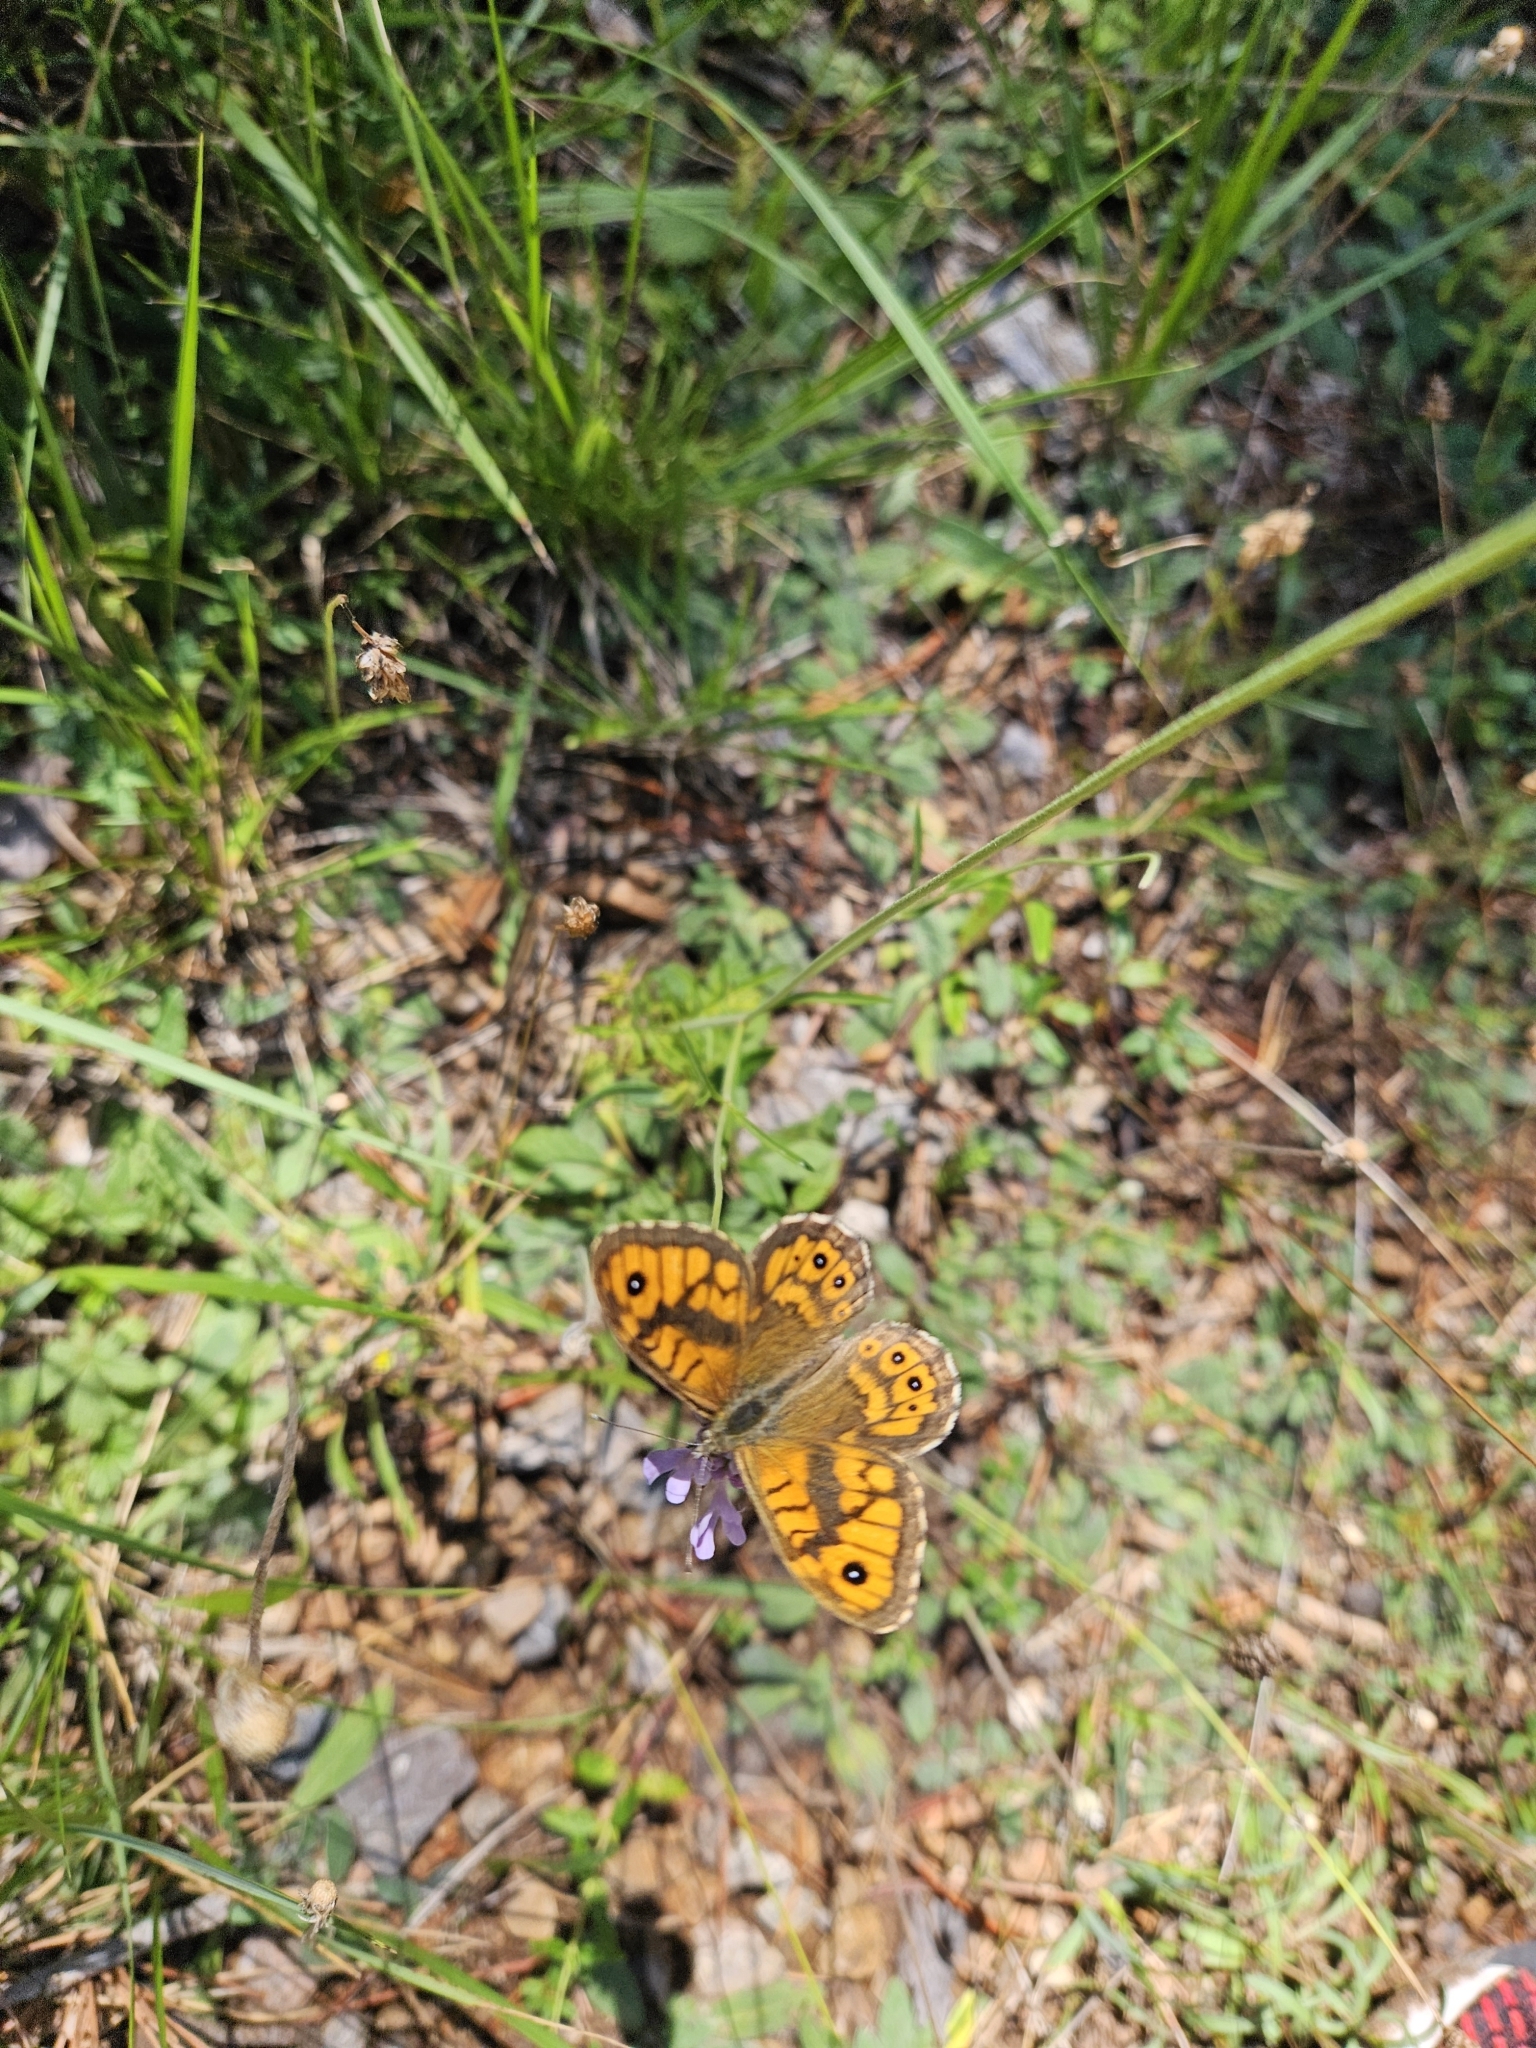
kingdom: Animalia
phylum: Arthropoda
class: Insecta
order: Lepidoptera
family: Nymphalidae
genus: Pararge
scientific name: Pararge Lasiommata megera
